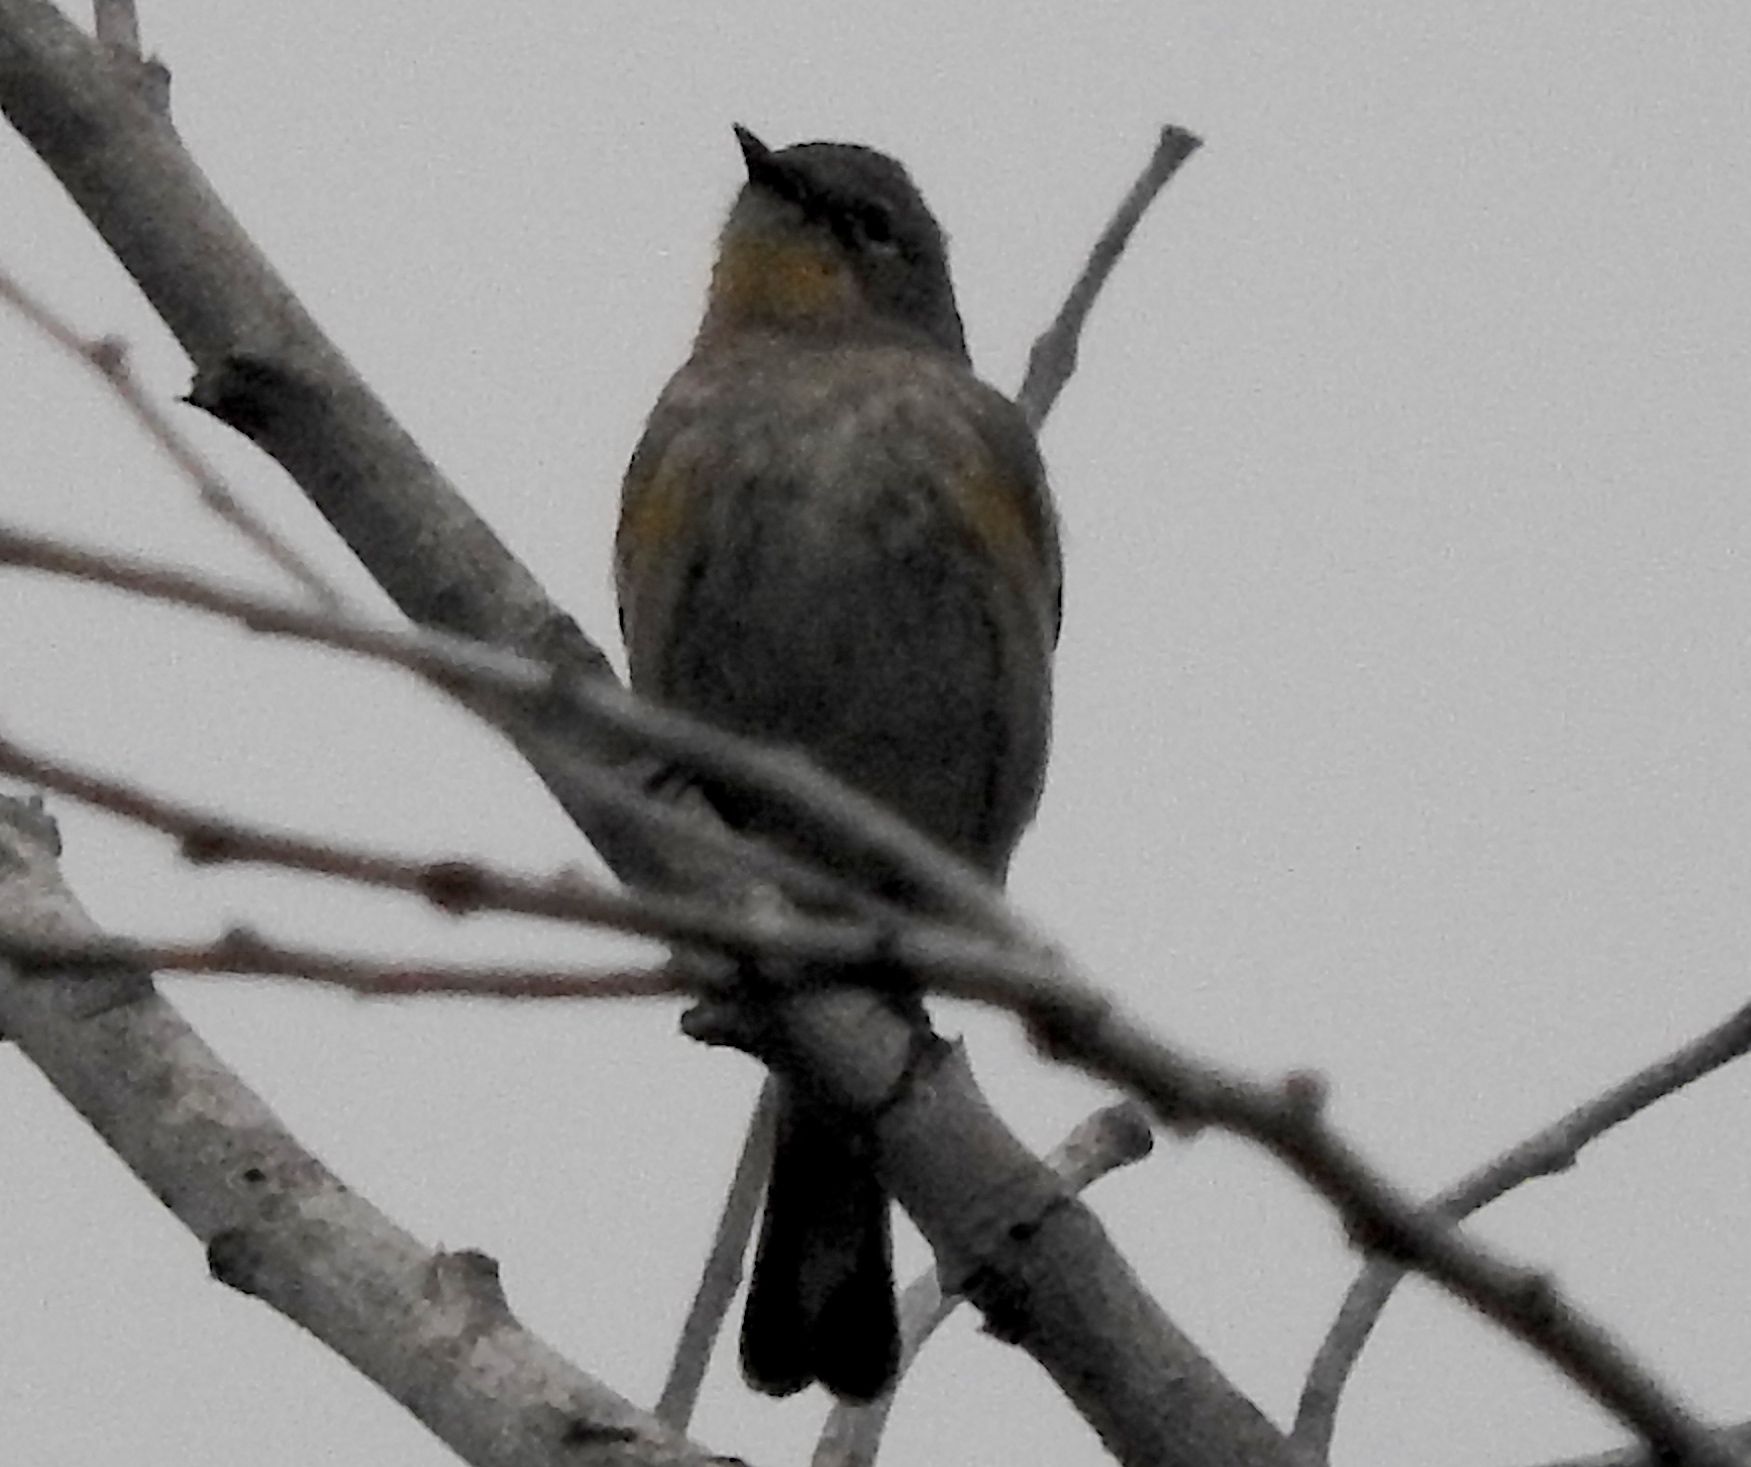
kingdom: Animalia
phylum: Chordata
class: Aves
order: Passeriformes
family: Parulidae
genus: Setophaga
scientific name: Setophaga coronata
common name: Myrtle warbler
